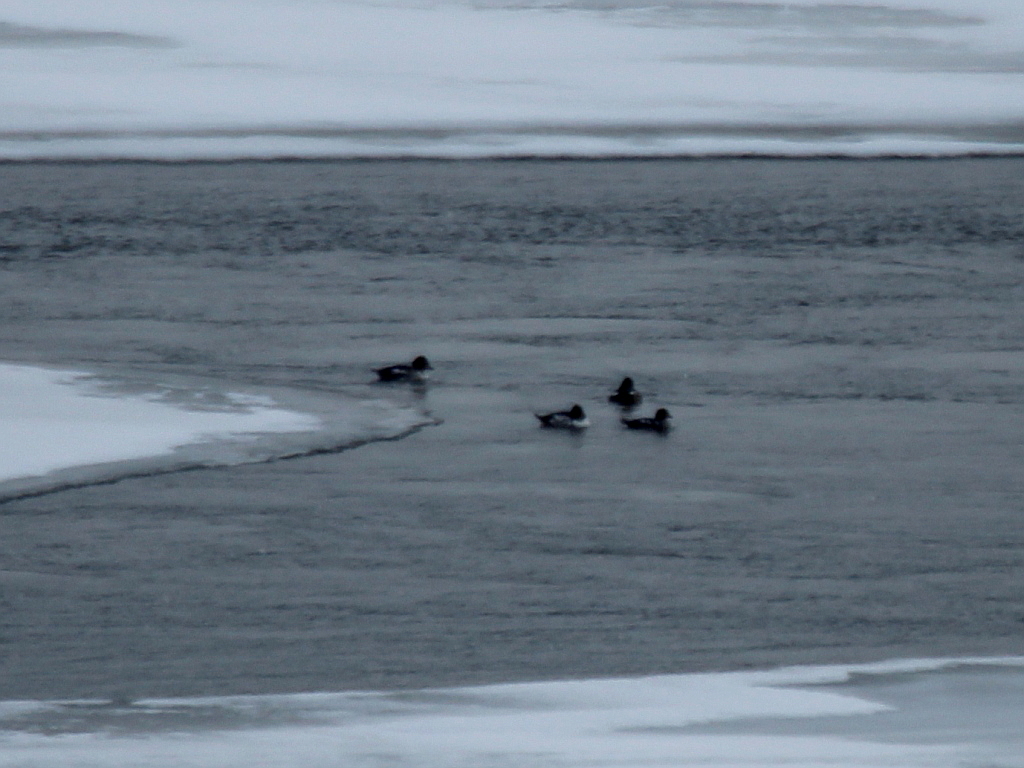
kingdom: Animalia
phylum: Chordata
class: Aves
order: Anseriformes
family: Anatidae
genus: Bucephala
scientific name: Bucephala clangula
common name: Common goldeneye
